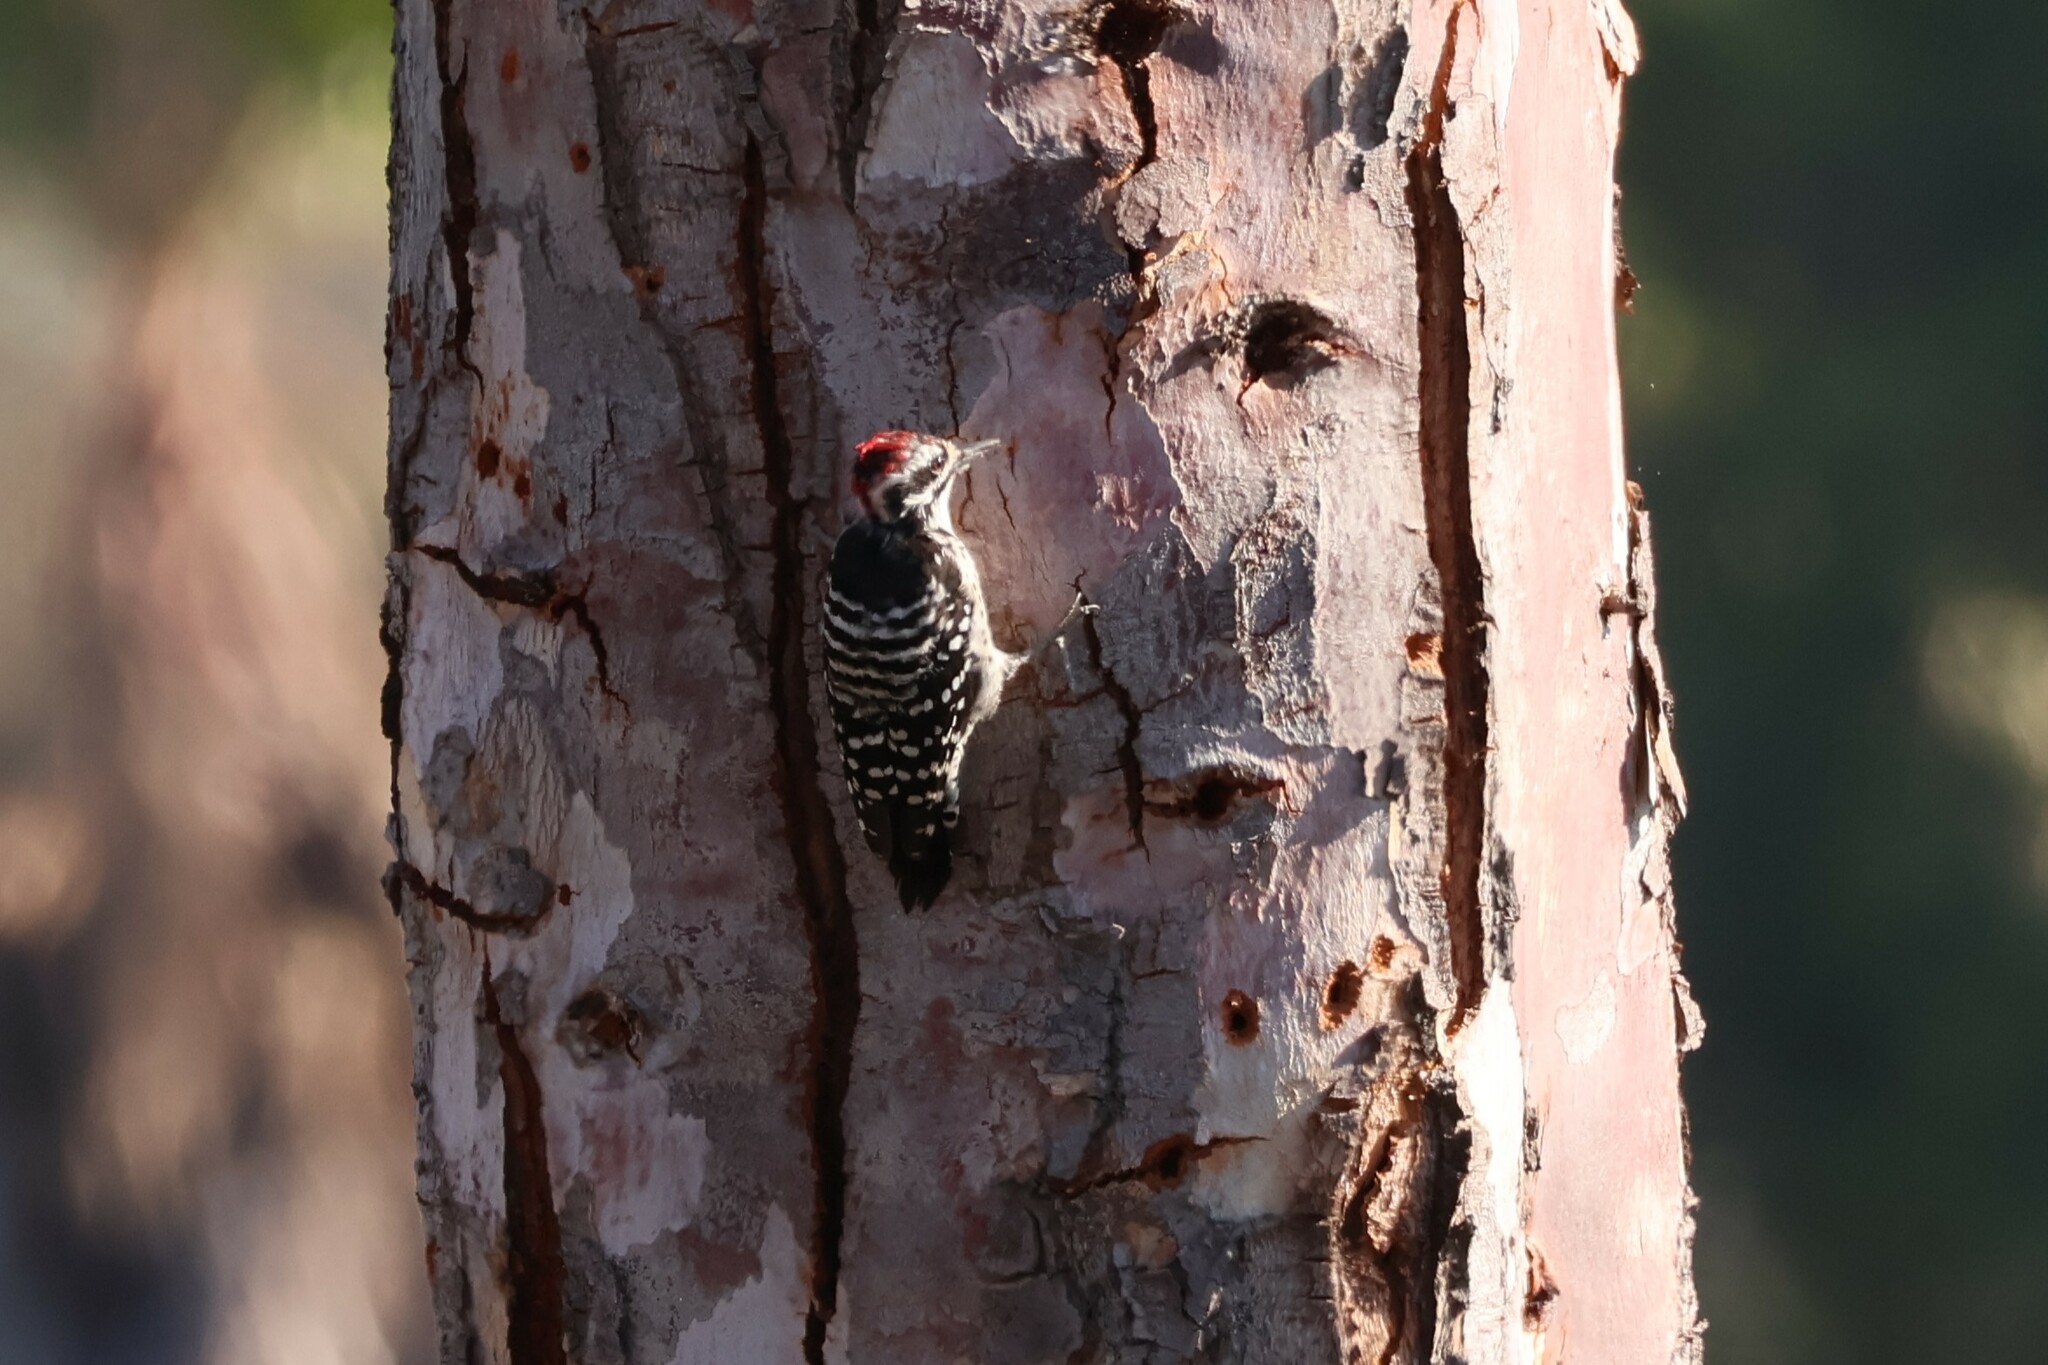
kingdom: Animalia
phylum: Chordata
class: Aves
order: Piciformes
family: Picidae
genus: Dryobates
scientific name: Dryobates nuttallii
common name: Nuttall's woodpecker
